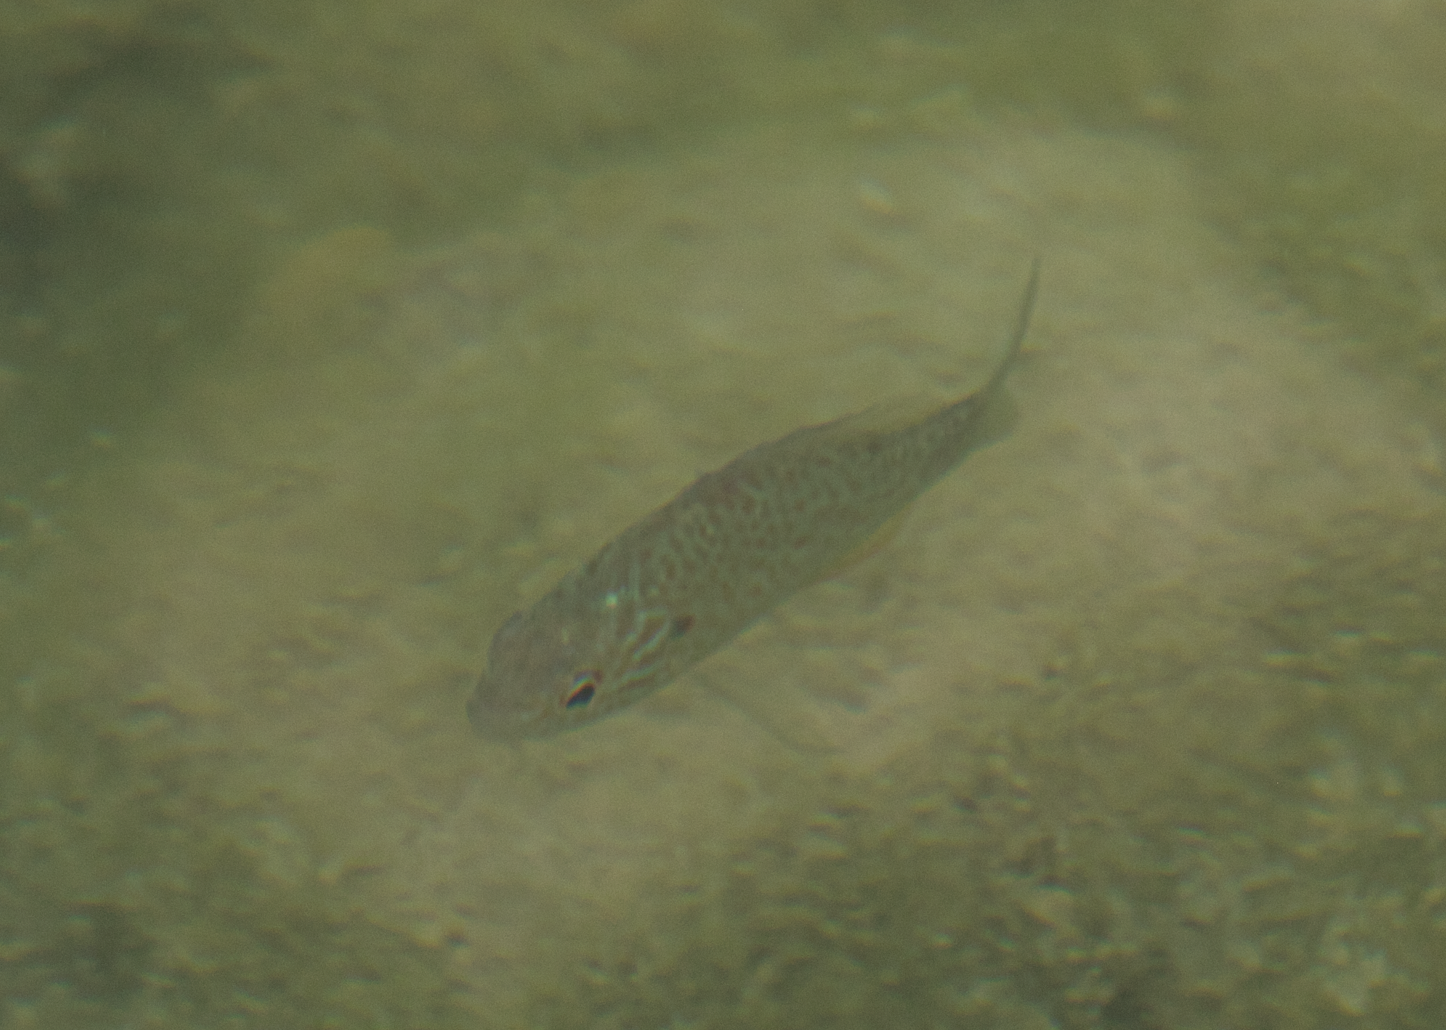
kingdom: Animalia
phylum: Chordata
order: Perciformes
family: Centrarchidae
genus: Lepomis
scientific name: Lepomis gibbosus
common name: Pumpkinseed
